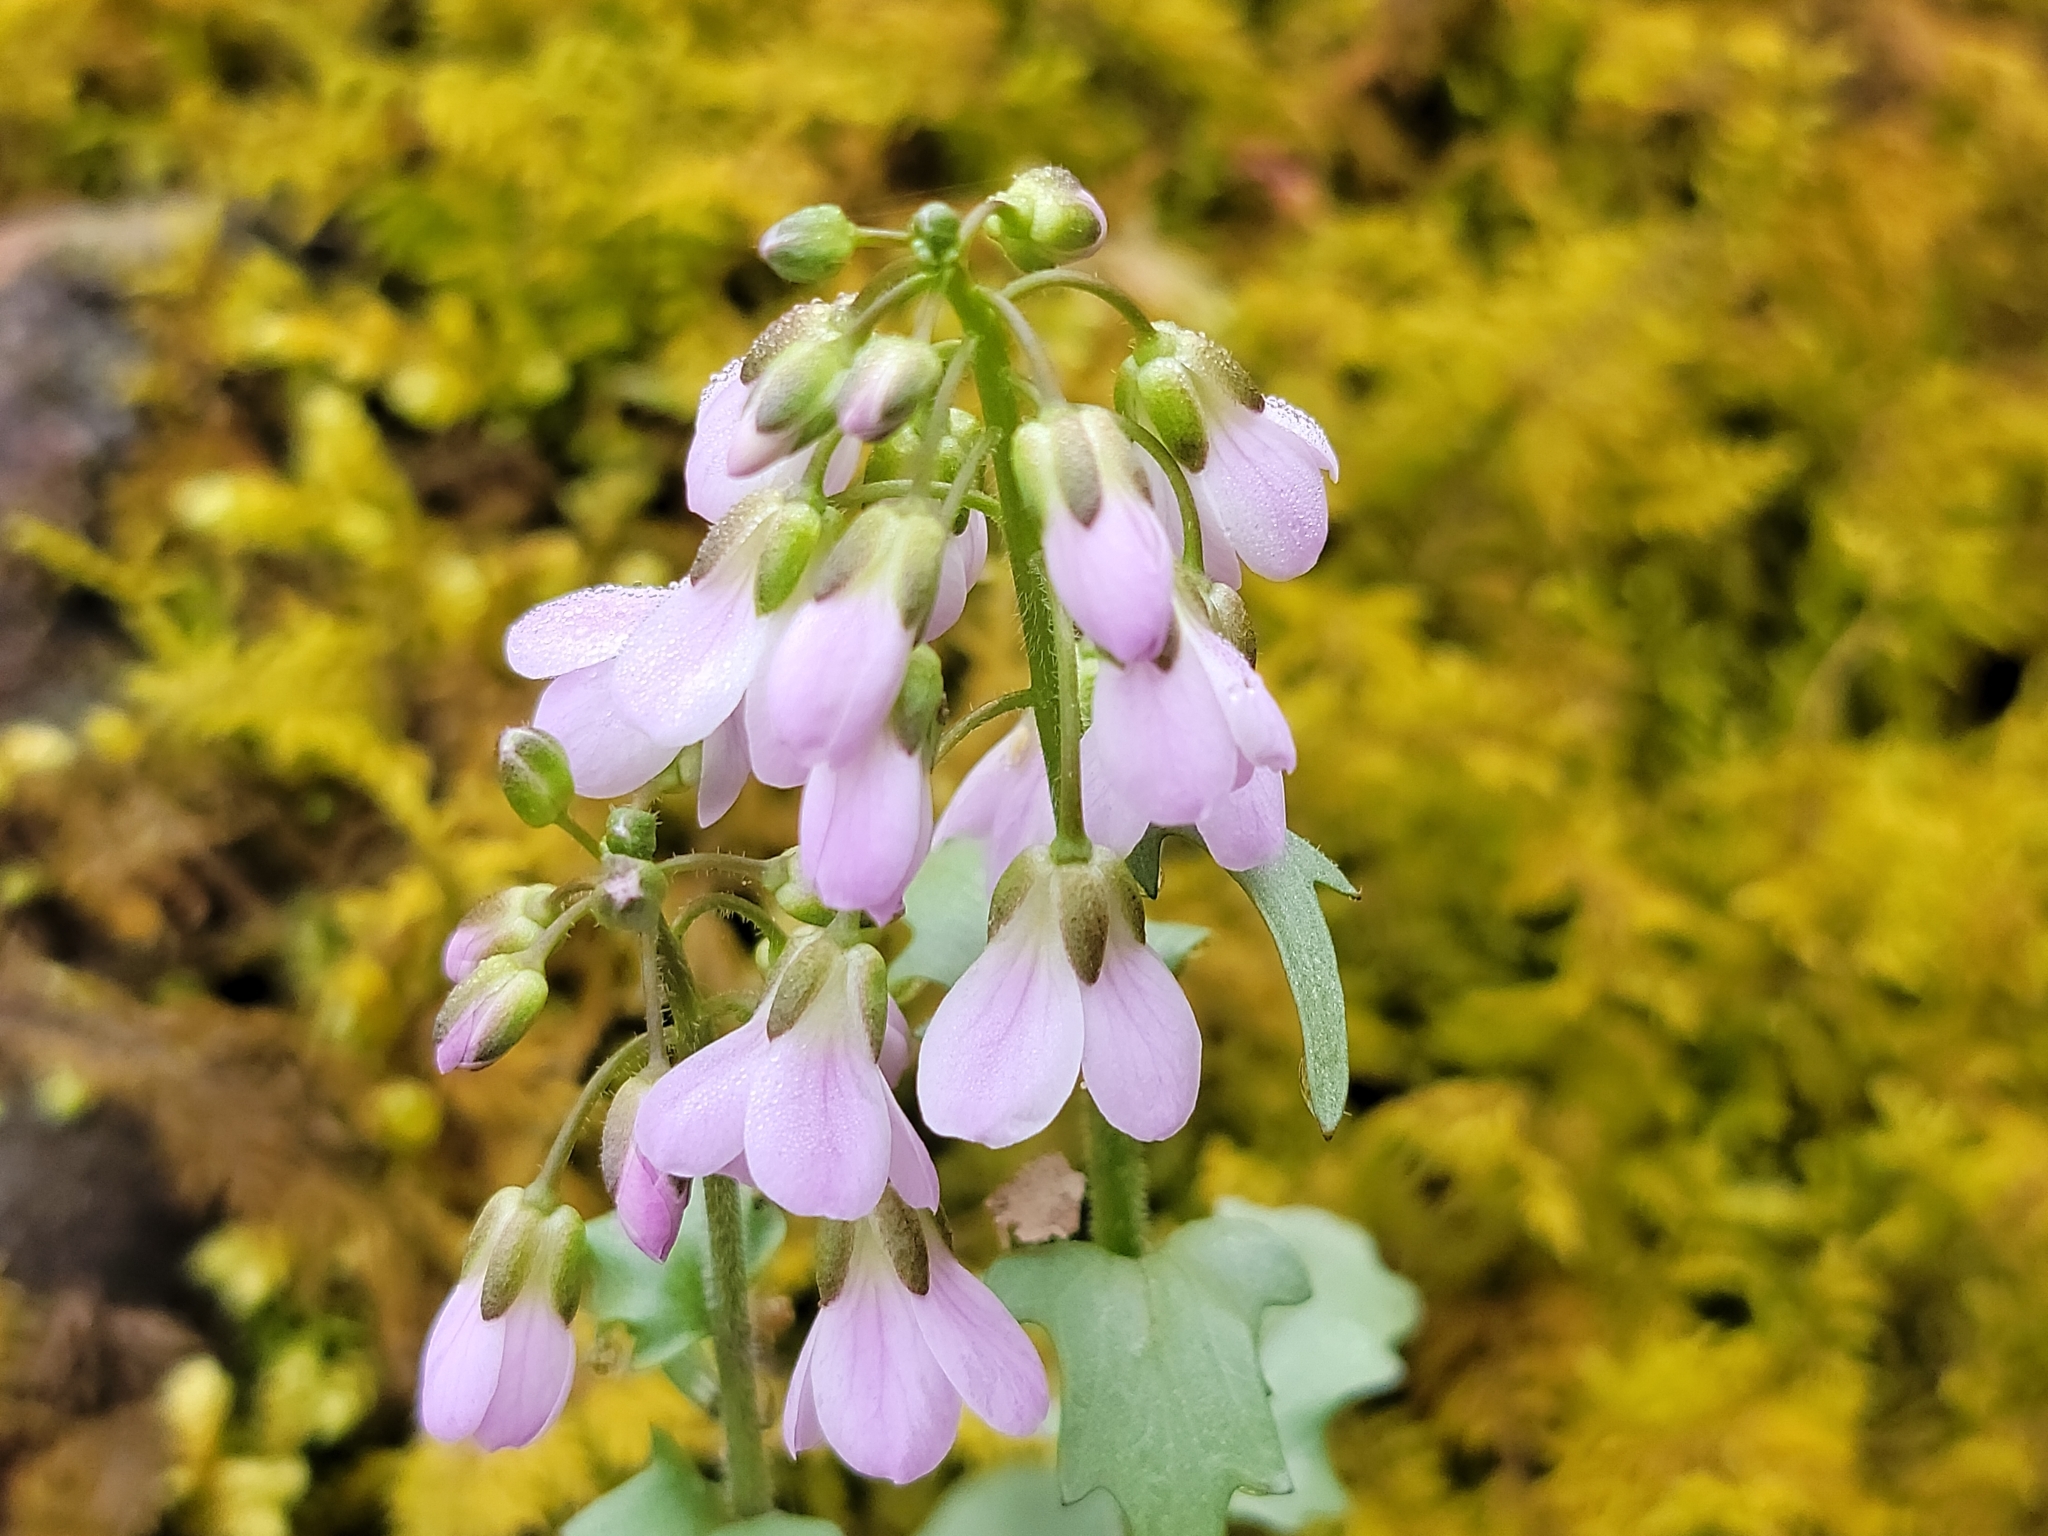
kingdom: Plantae
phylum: Tracheophyta
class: Magnoliopsida
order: Brassicales
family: Brassicaceae
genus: Cardamine
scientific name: Cardamine douglassii
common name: Purple cress
